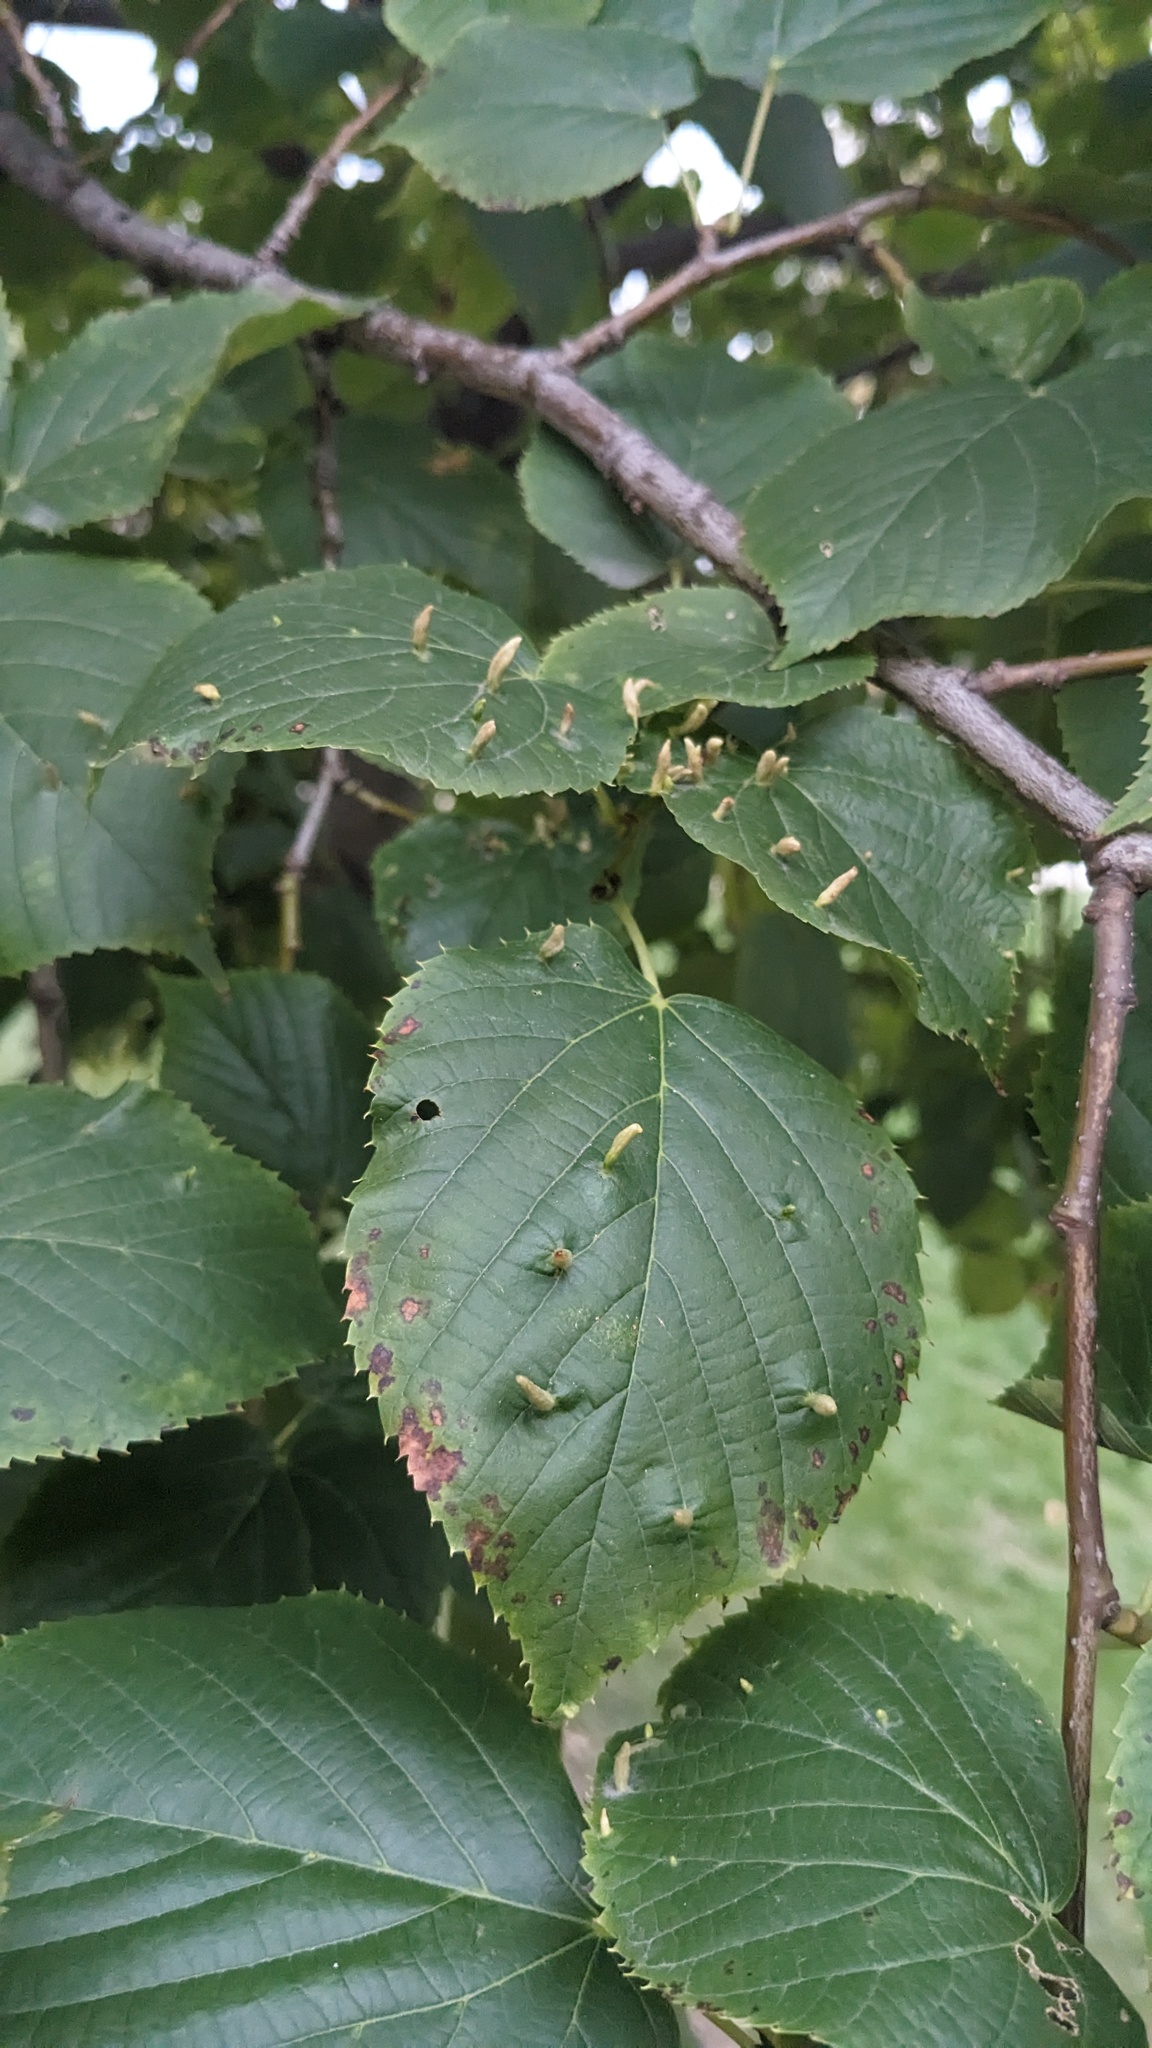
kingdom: Animalia
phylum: Arthropoda
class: Arachnida
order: Trombidiformes
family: Eriophyidae
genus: Eriophyes
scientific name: Eriophyes tiliae
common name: Red nail gall mite
